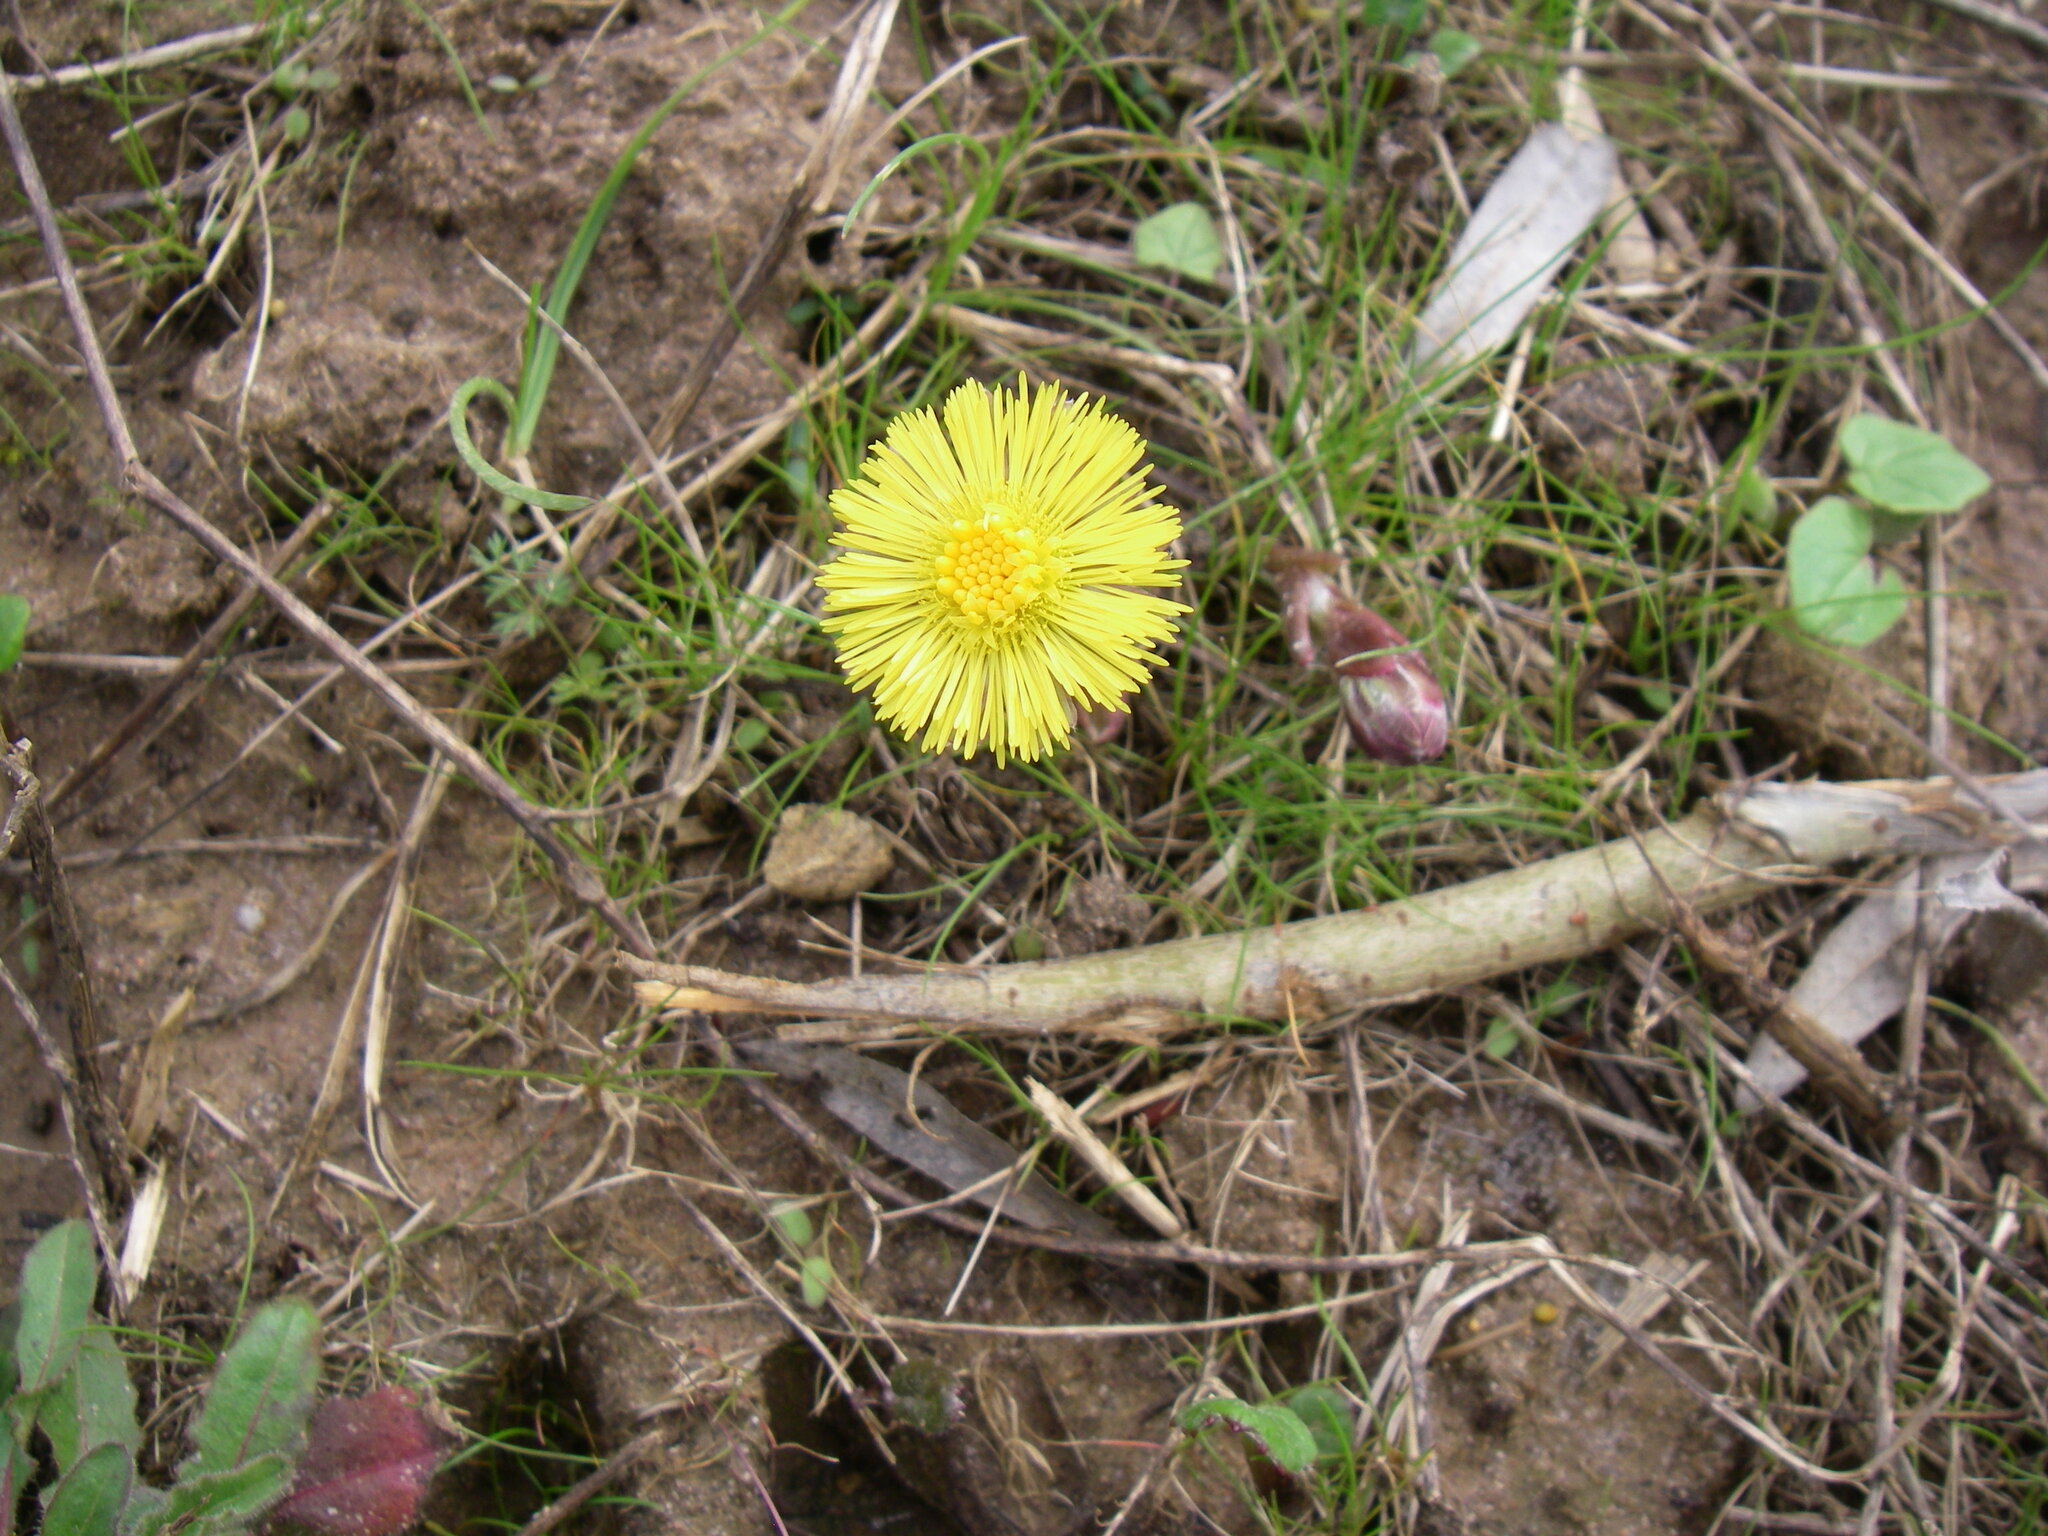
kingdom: Plantae
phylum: Tracheophyta
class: Magnoliopsida
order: Asterales
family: Asteraceae
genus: Tussilago
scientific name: Tussilago farfara
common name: Coltsfoot
